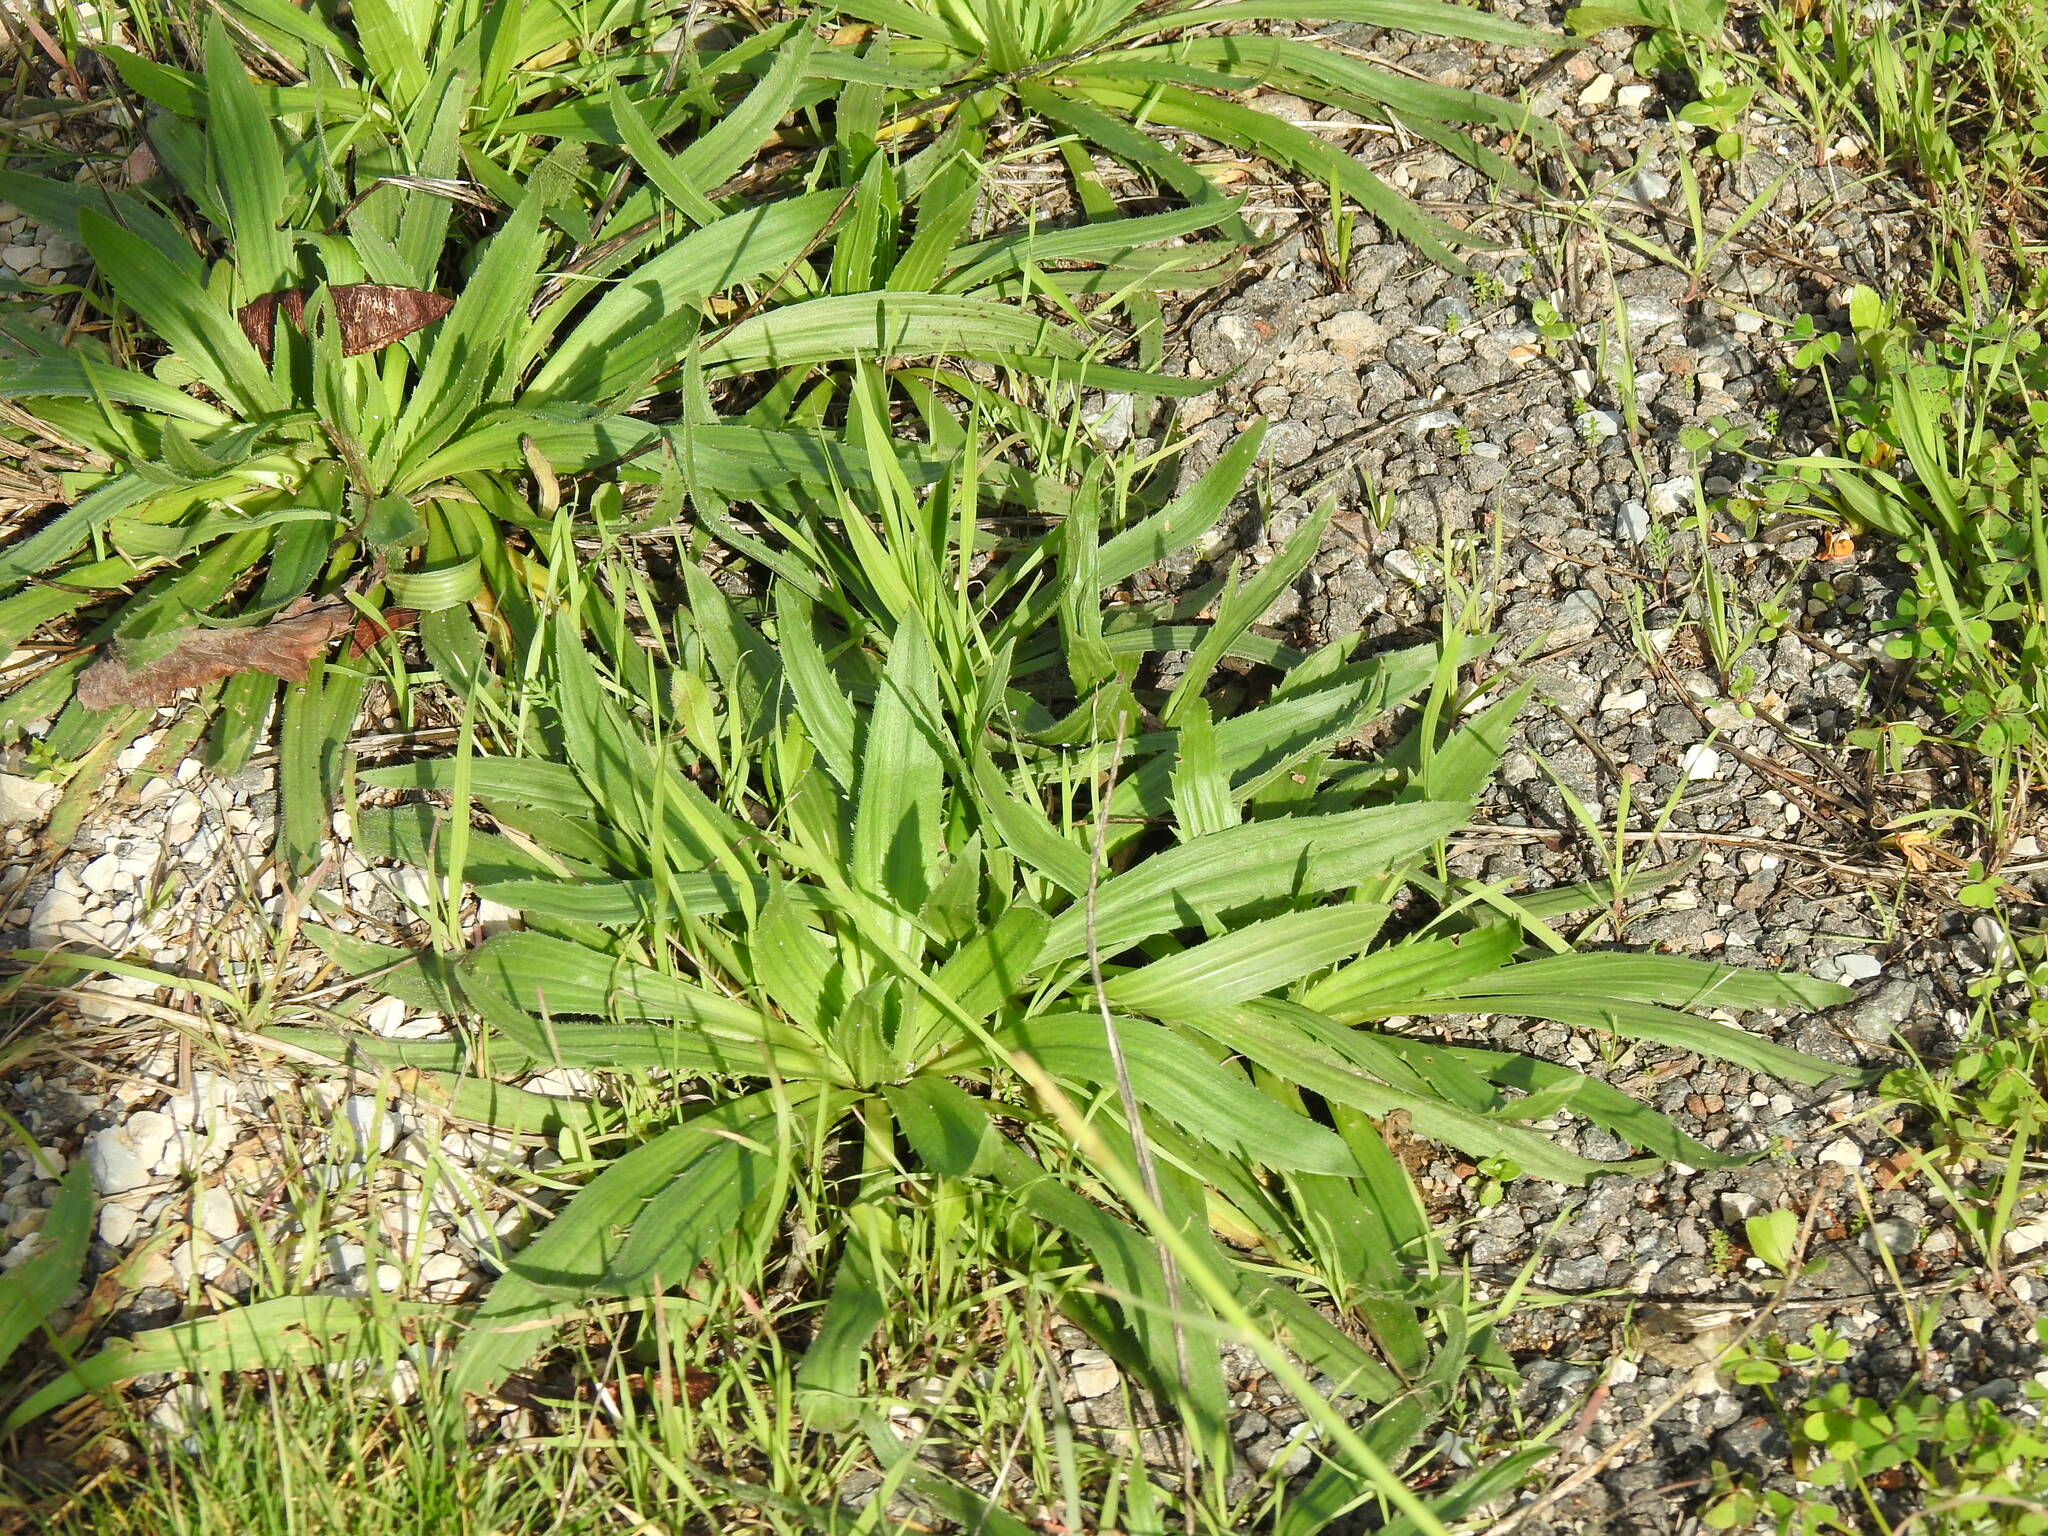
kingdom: Plantae
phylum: Tracheophyta
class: Magnoliopsida
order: Lamiales
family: Plantaginaceae
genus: Plantago
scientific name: Plantago serraria
